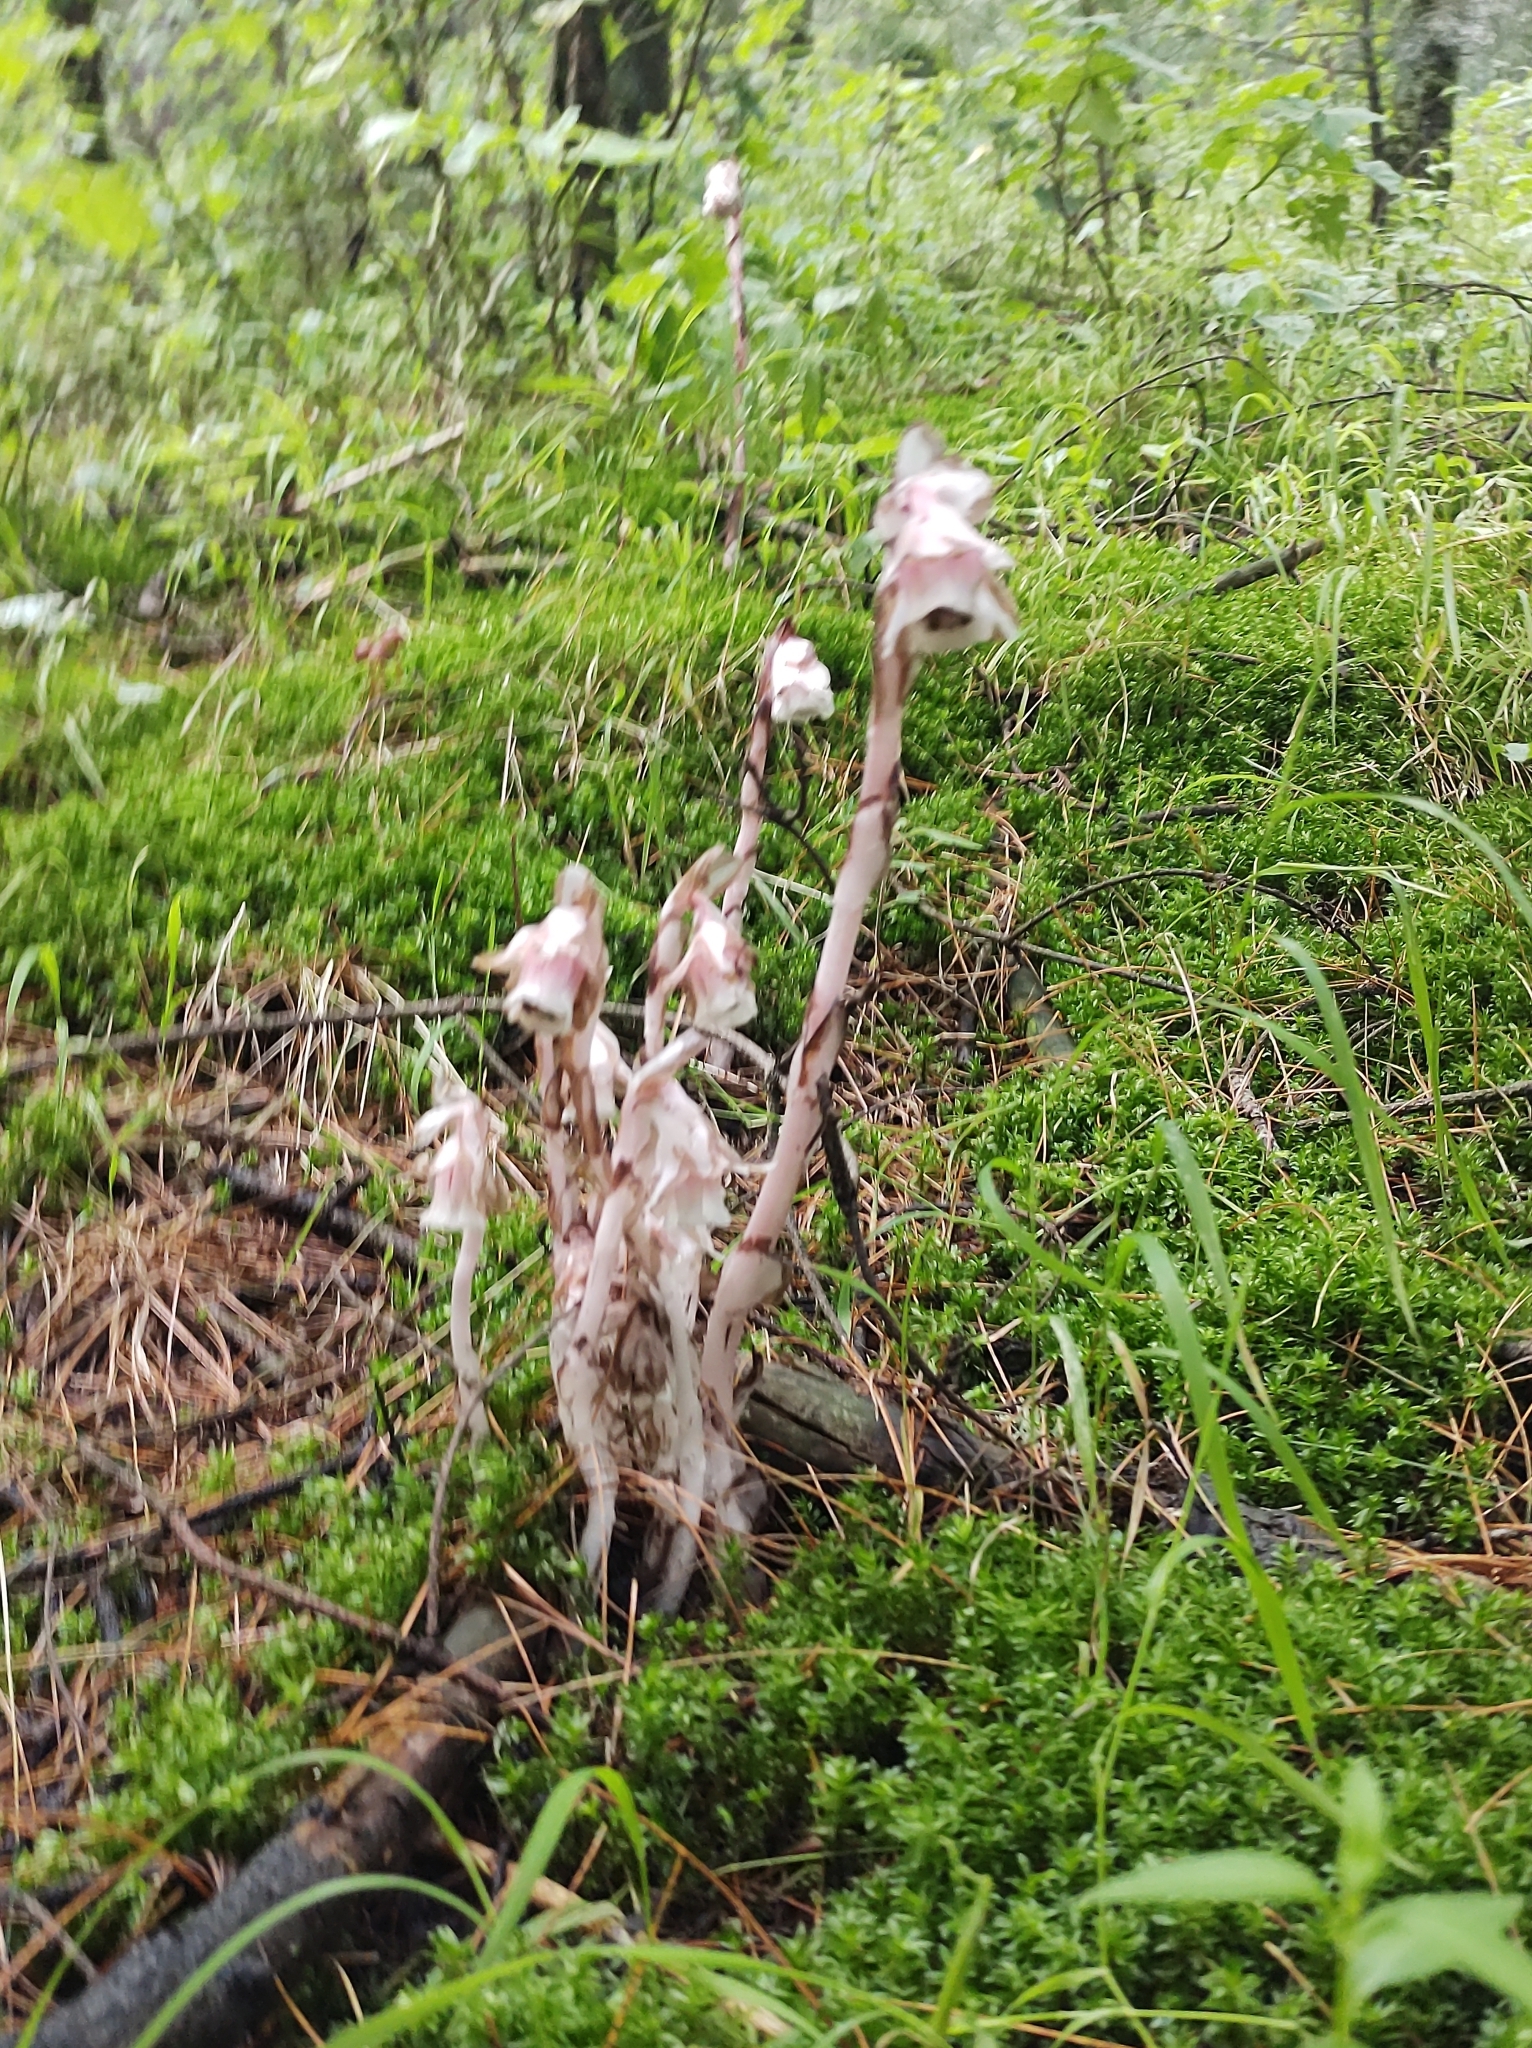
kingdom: Plantae
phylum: Tracheophyta
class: Magnoliopsida
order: Ericales
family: Ericaceae
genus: Monotropa
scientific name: Monotropa uniflora
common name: Convulsion root
